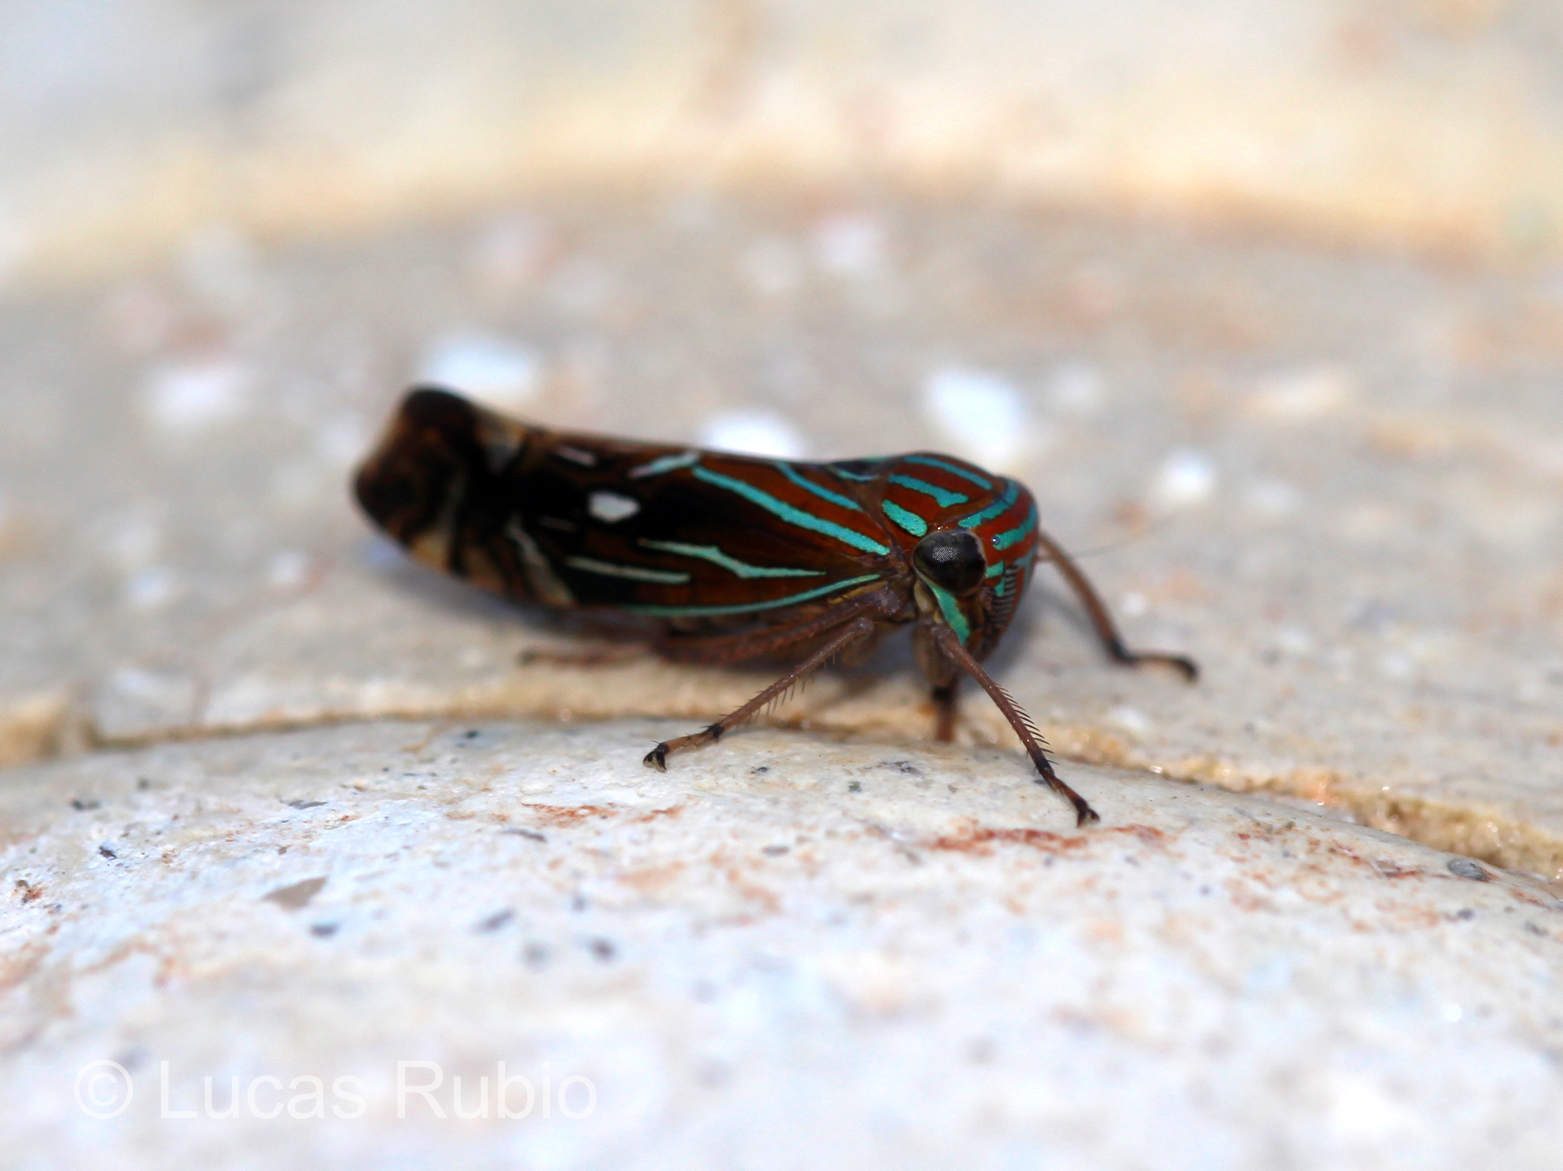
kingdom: Animalia
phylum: Arthropoda
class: Insecta
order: Hemiptera
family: Cicadellidae
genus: Calliscarta
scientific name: Calliscarta fasciata
